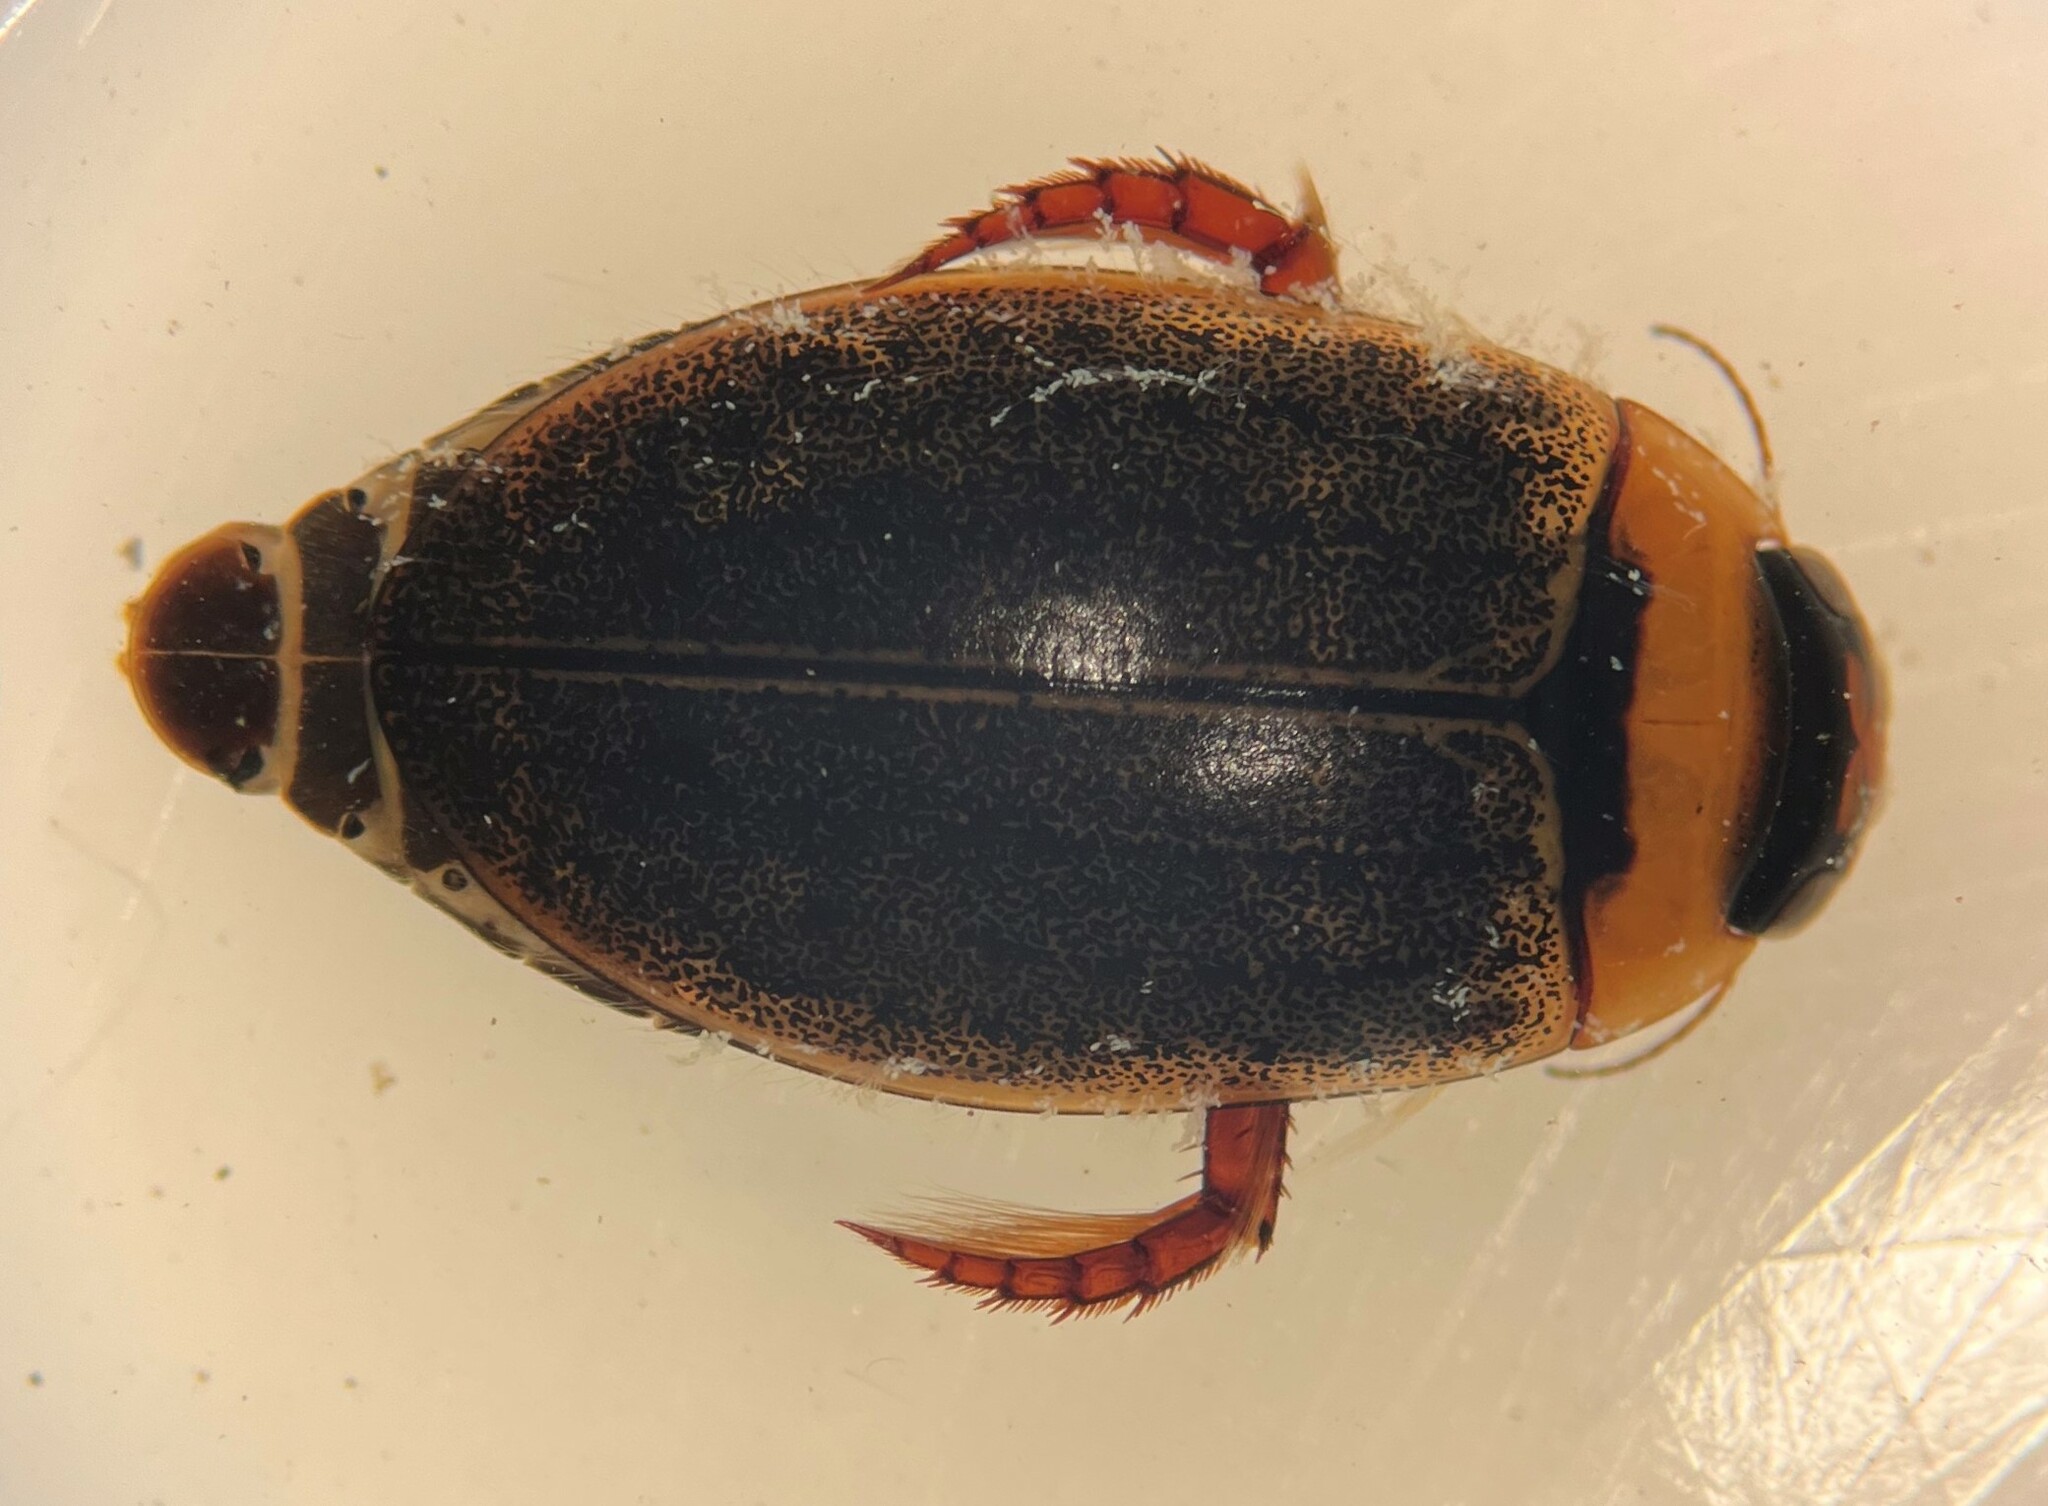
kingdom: Animalia
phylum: Arthropoda
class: Insecta
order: Coleoptera
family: Dytiscidae
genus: Rhantus
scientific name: Rhantus wallisi
